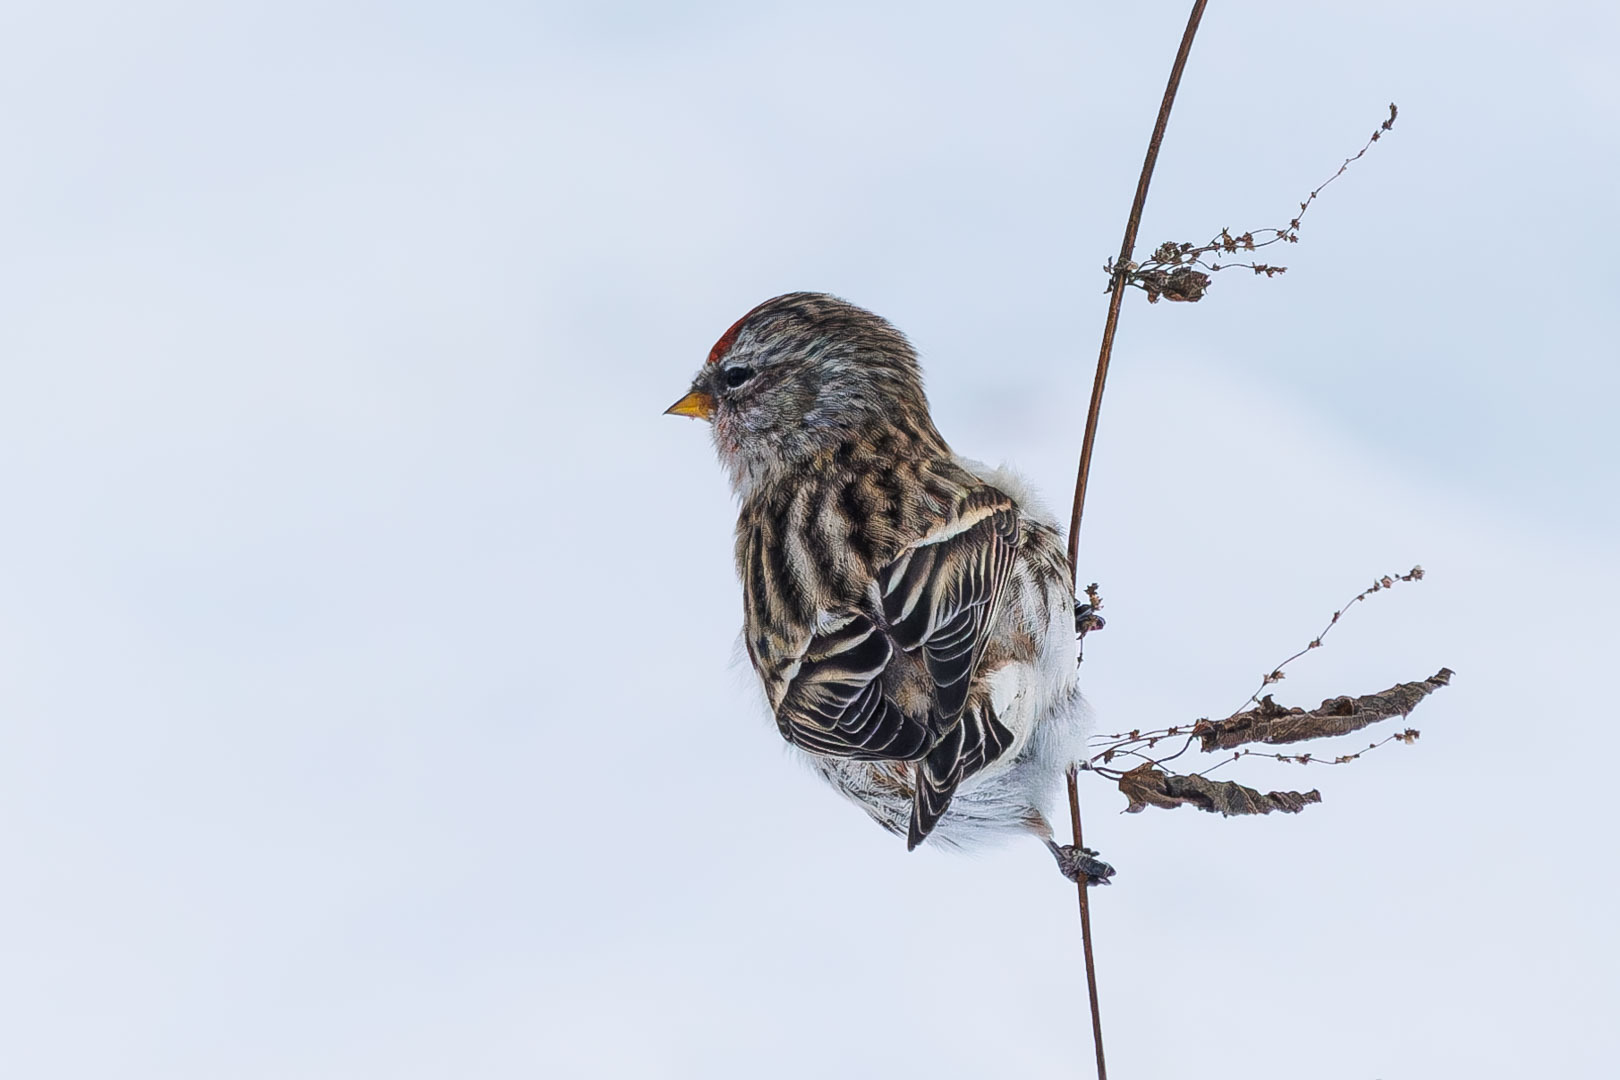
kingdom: Animalia
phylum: Chordata
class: Aves
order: Passeriformes
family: Fringillidae
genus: Acanthis
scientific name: Acanthis flammea
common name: Common redpoll
